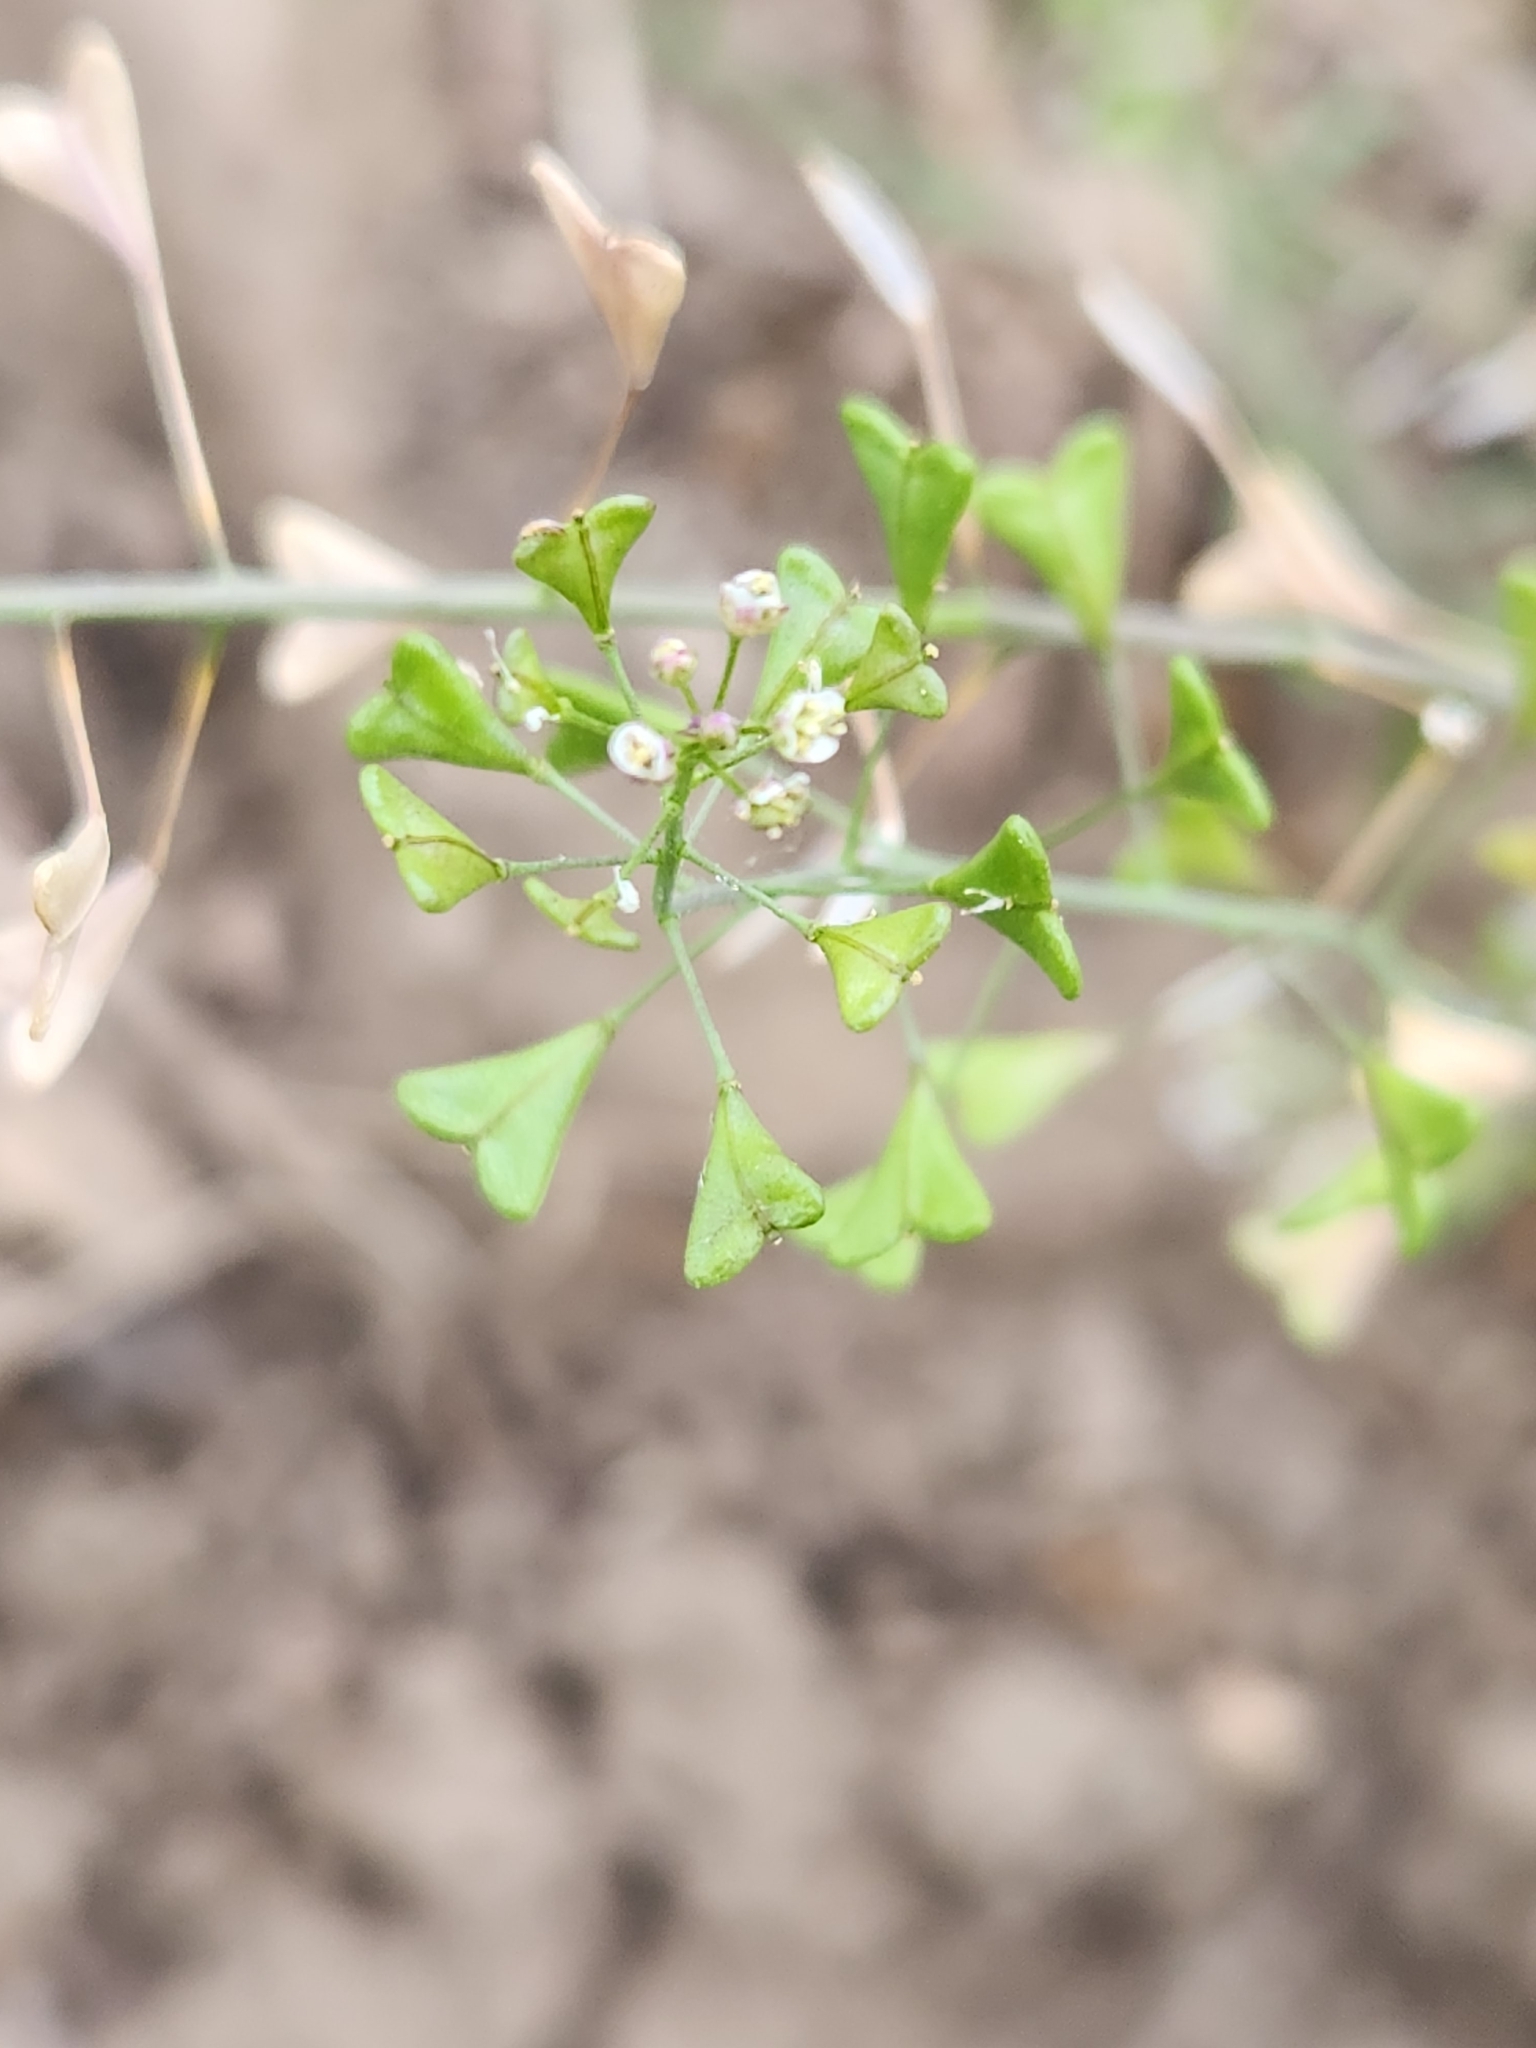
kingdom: Plantae
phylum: Tracheophyta
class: Magnoliopsida
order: Brassicales
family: Brassicaceae
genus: Capsella
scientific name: Capsella bursa-pastoris
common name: Shepherd's purse
